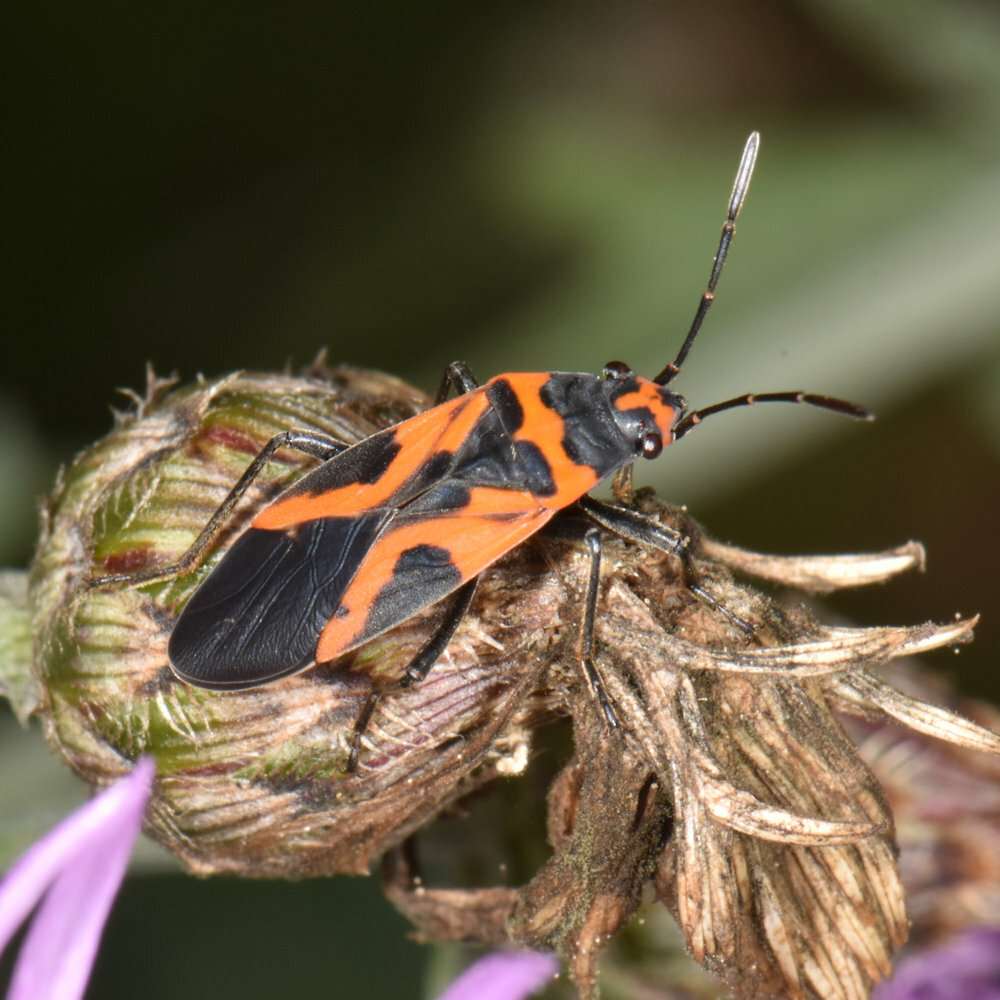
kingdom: Animalia
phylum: Arthropoda
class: Insecta
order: Hemiptera
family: Lygaeidae
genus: Lygaeus
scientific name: Lygaeus turcicus
